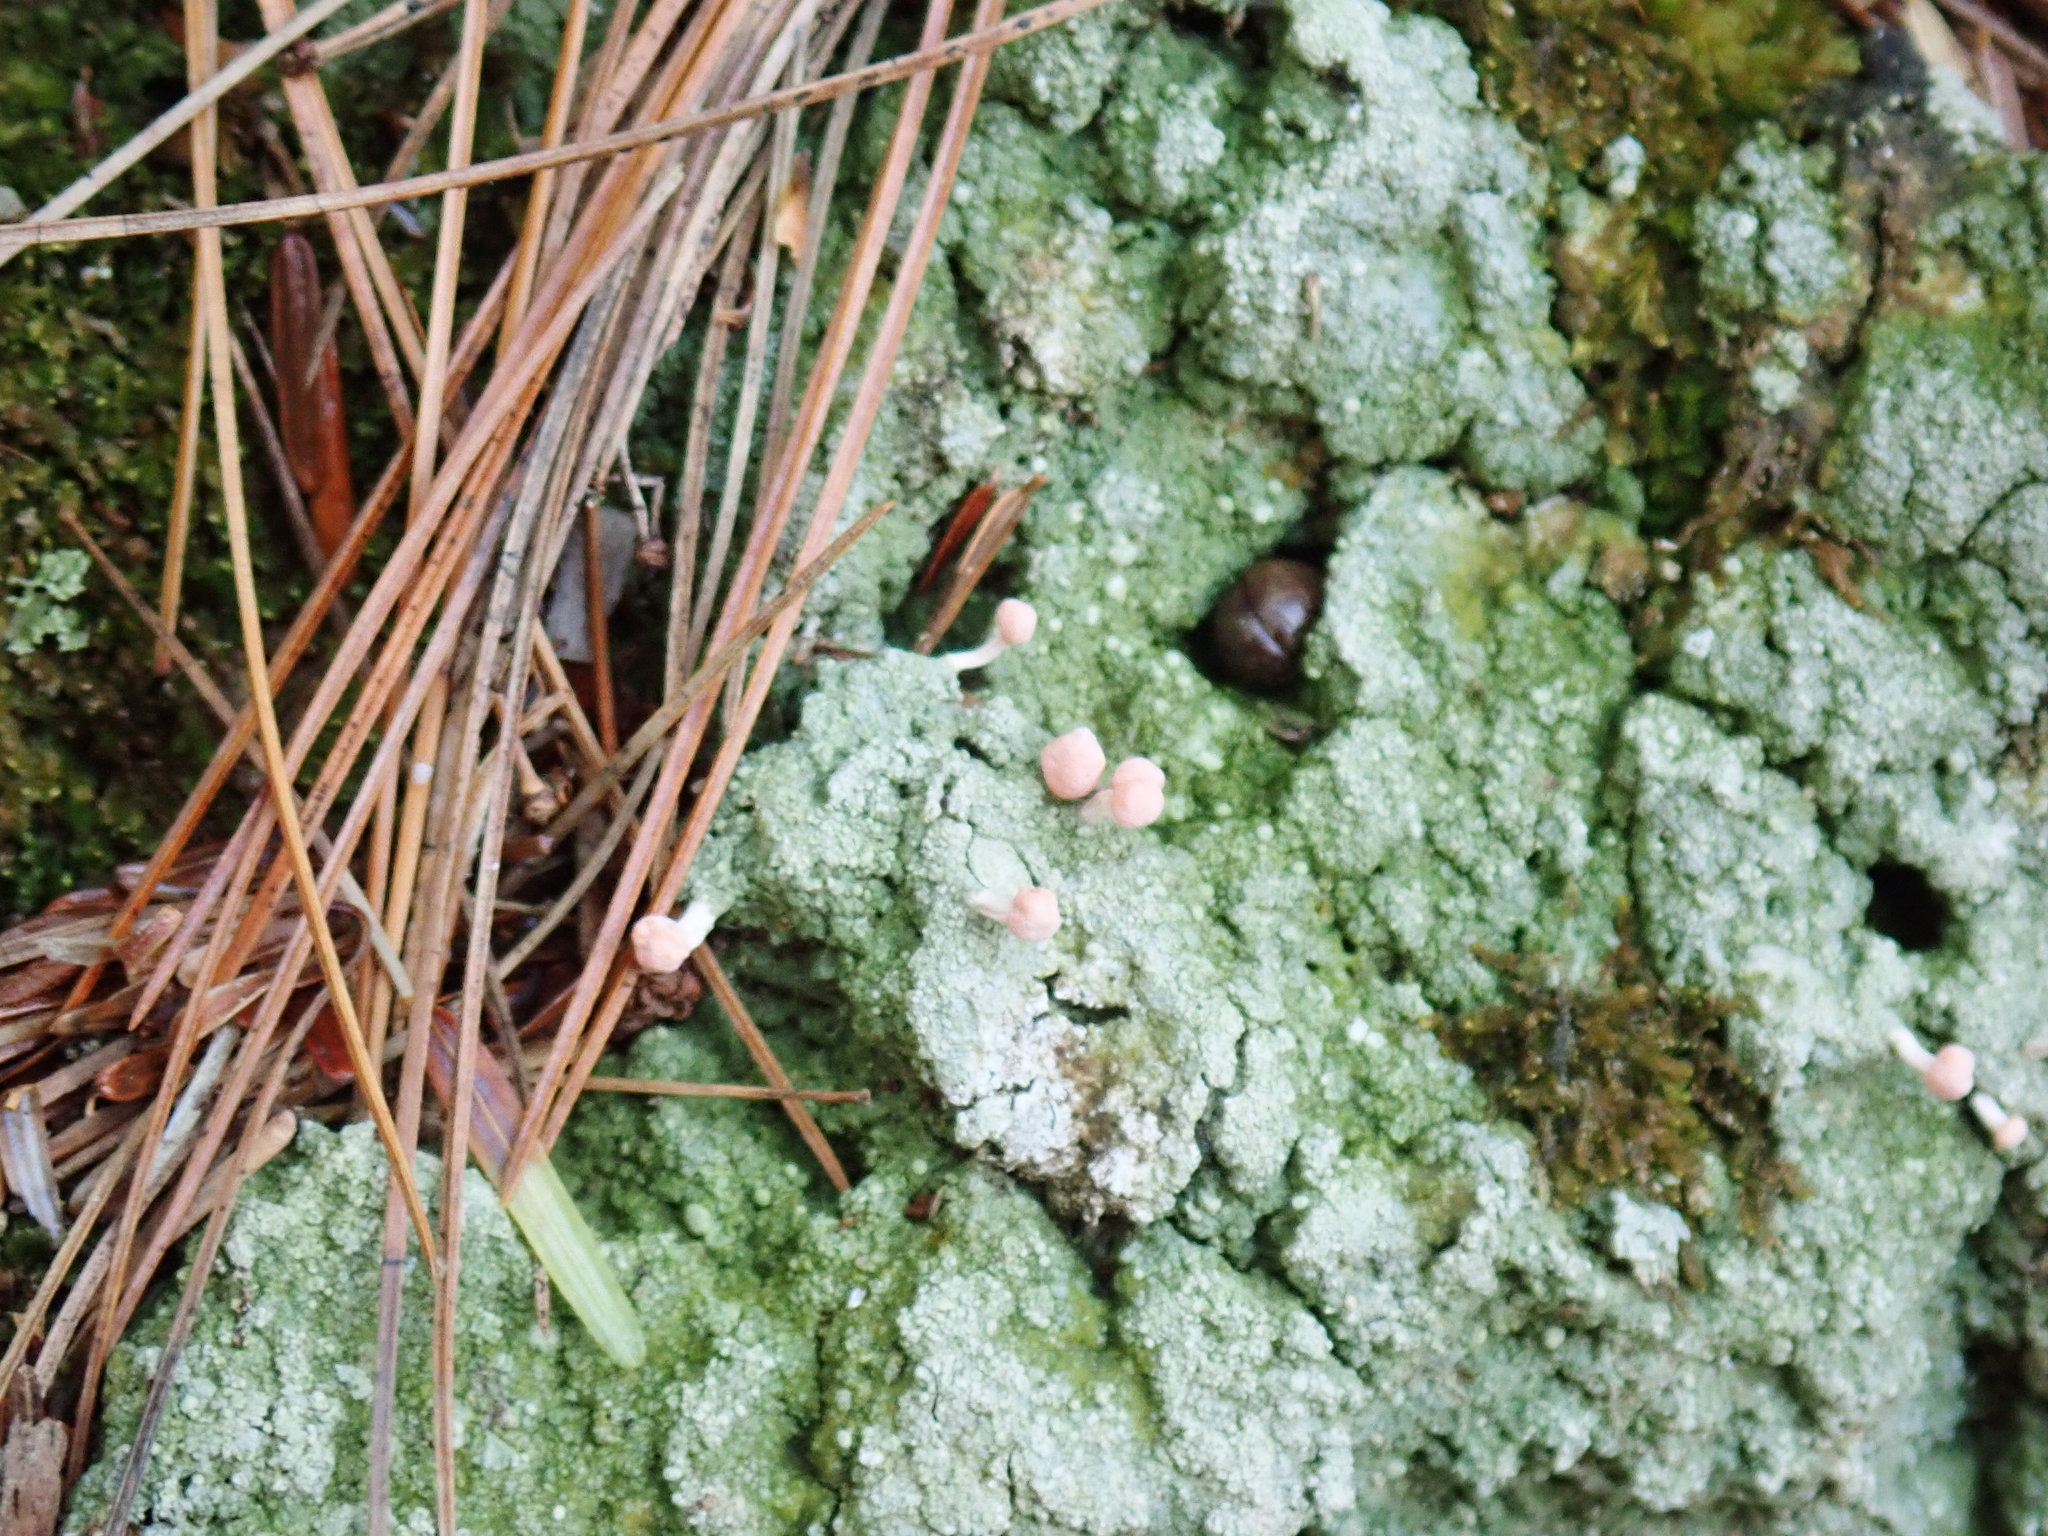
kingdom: Fungi
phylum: Ascomycota
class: Lecanoromycetes
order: Pertusariales
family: Icmadophilaceae
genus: Dibaeis
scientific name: Dibaeis baeomyces
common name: Pink earth lichen
